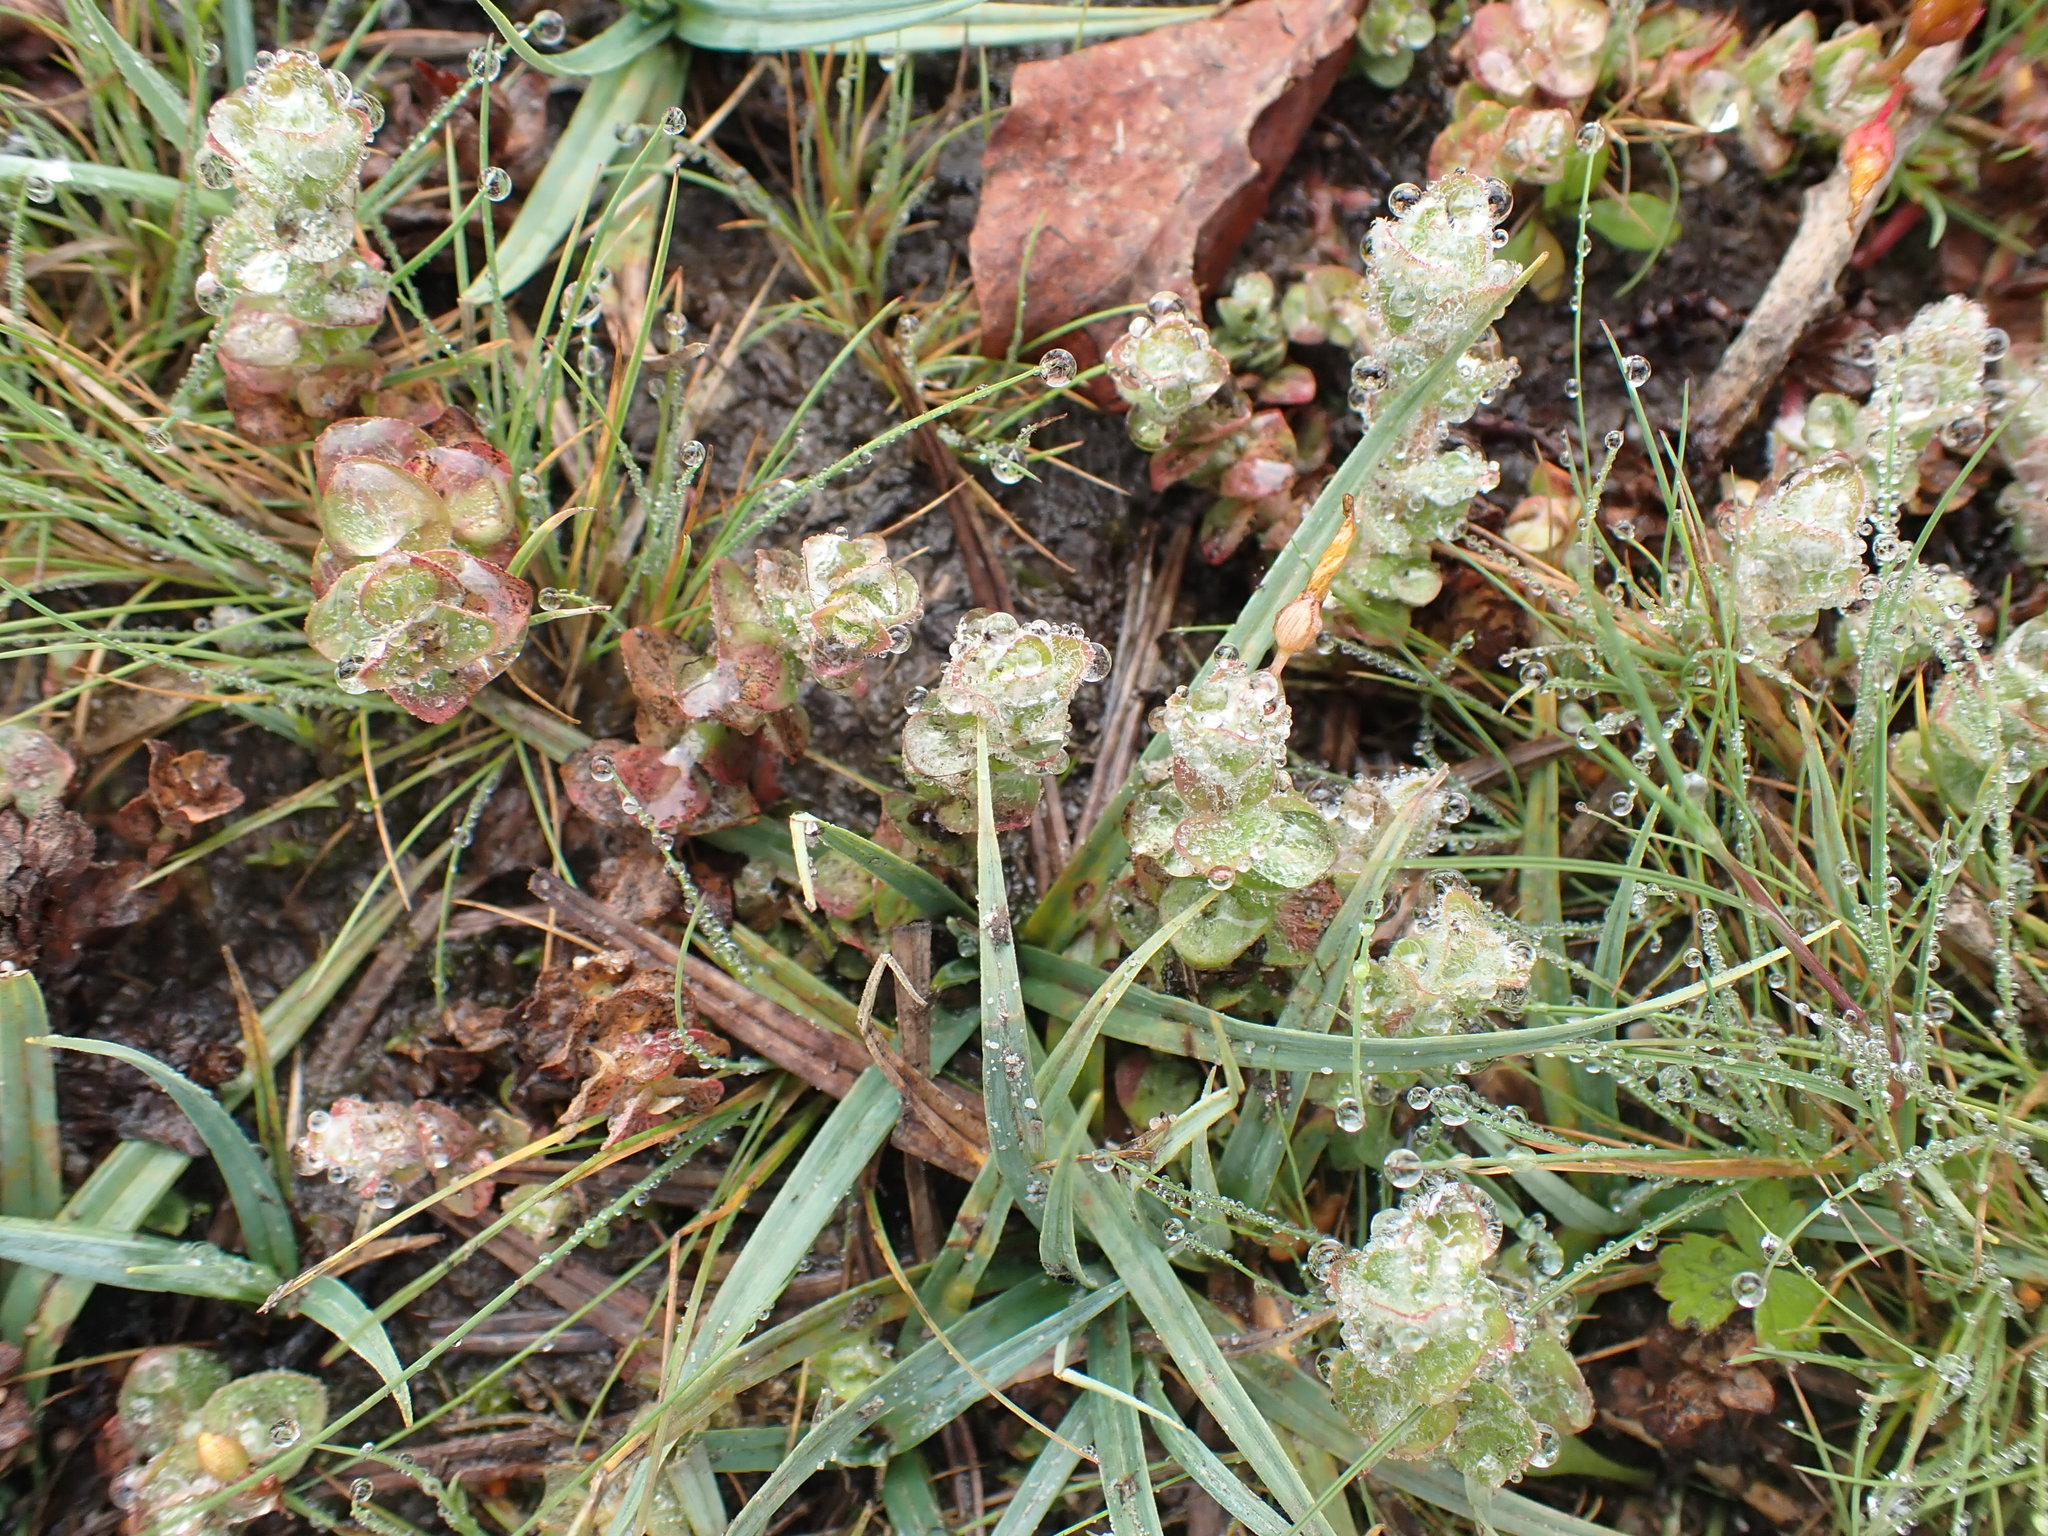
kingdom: Plantae
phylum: Tracheophyta
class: Magnoliopsida
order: Malpighiales
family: Hypericaceae
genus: Hypericum
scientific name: Hypericum elodes
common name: Marsh st. john's-wort
